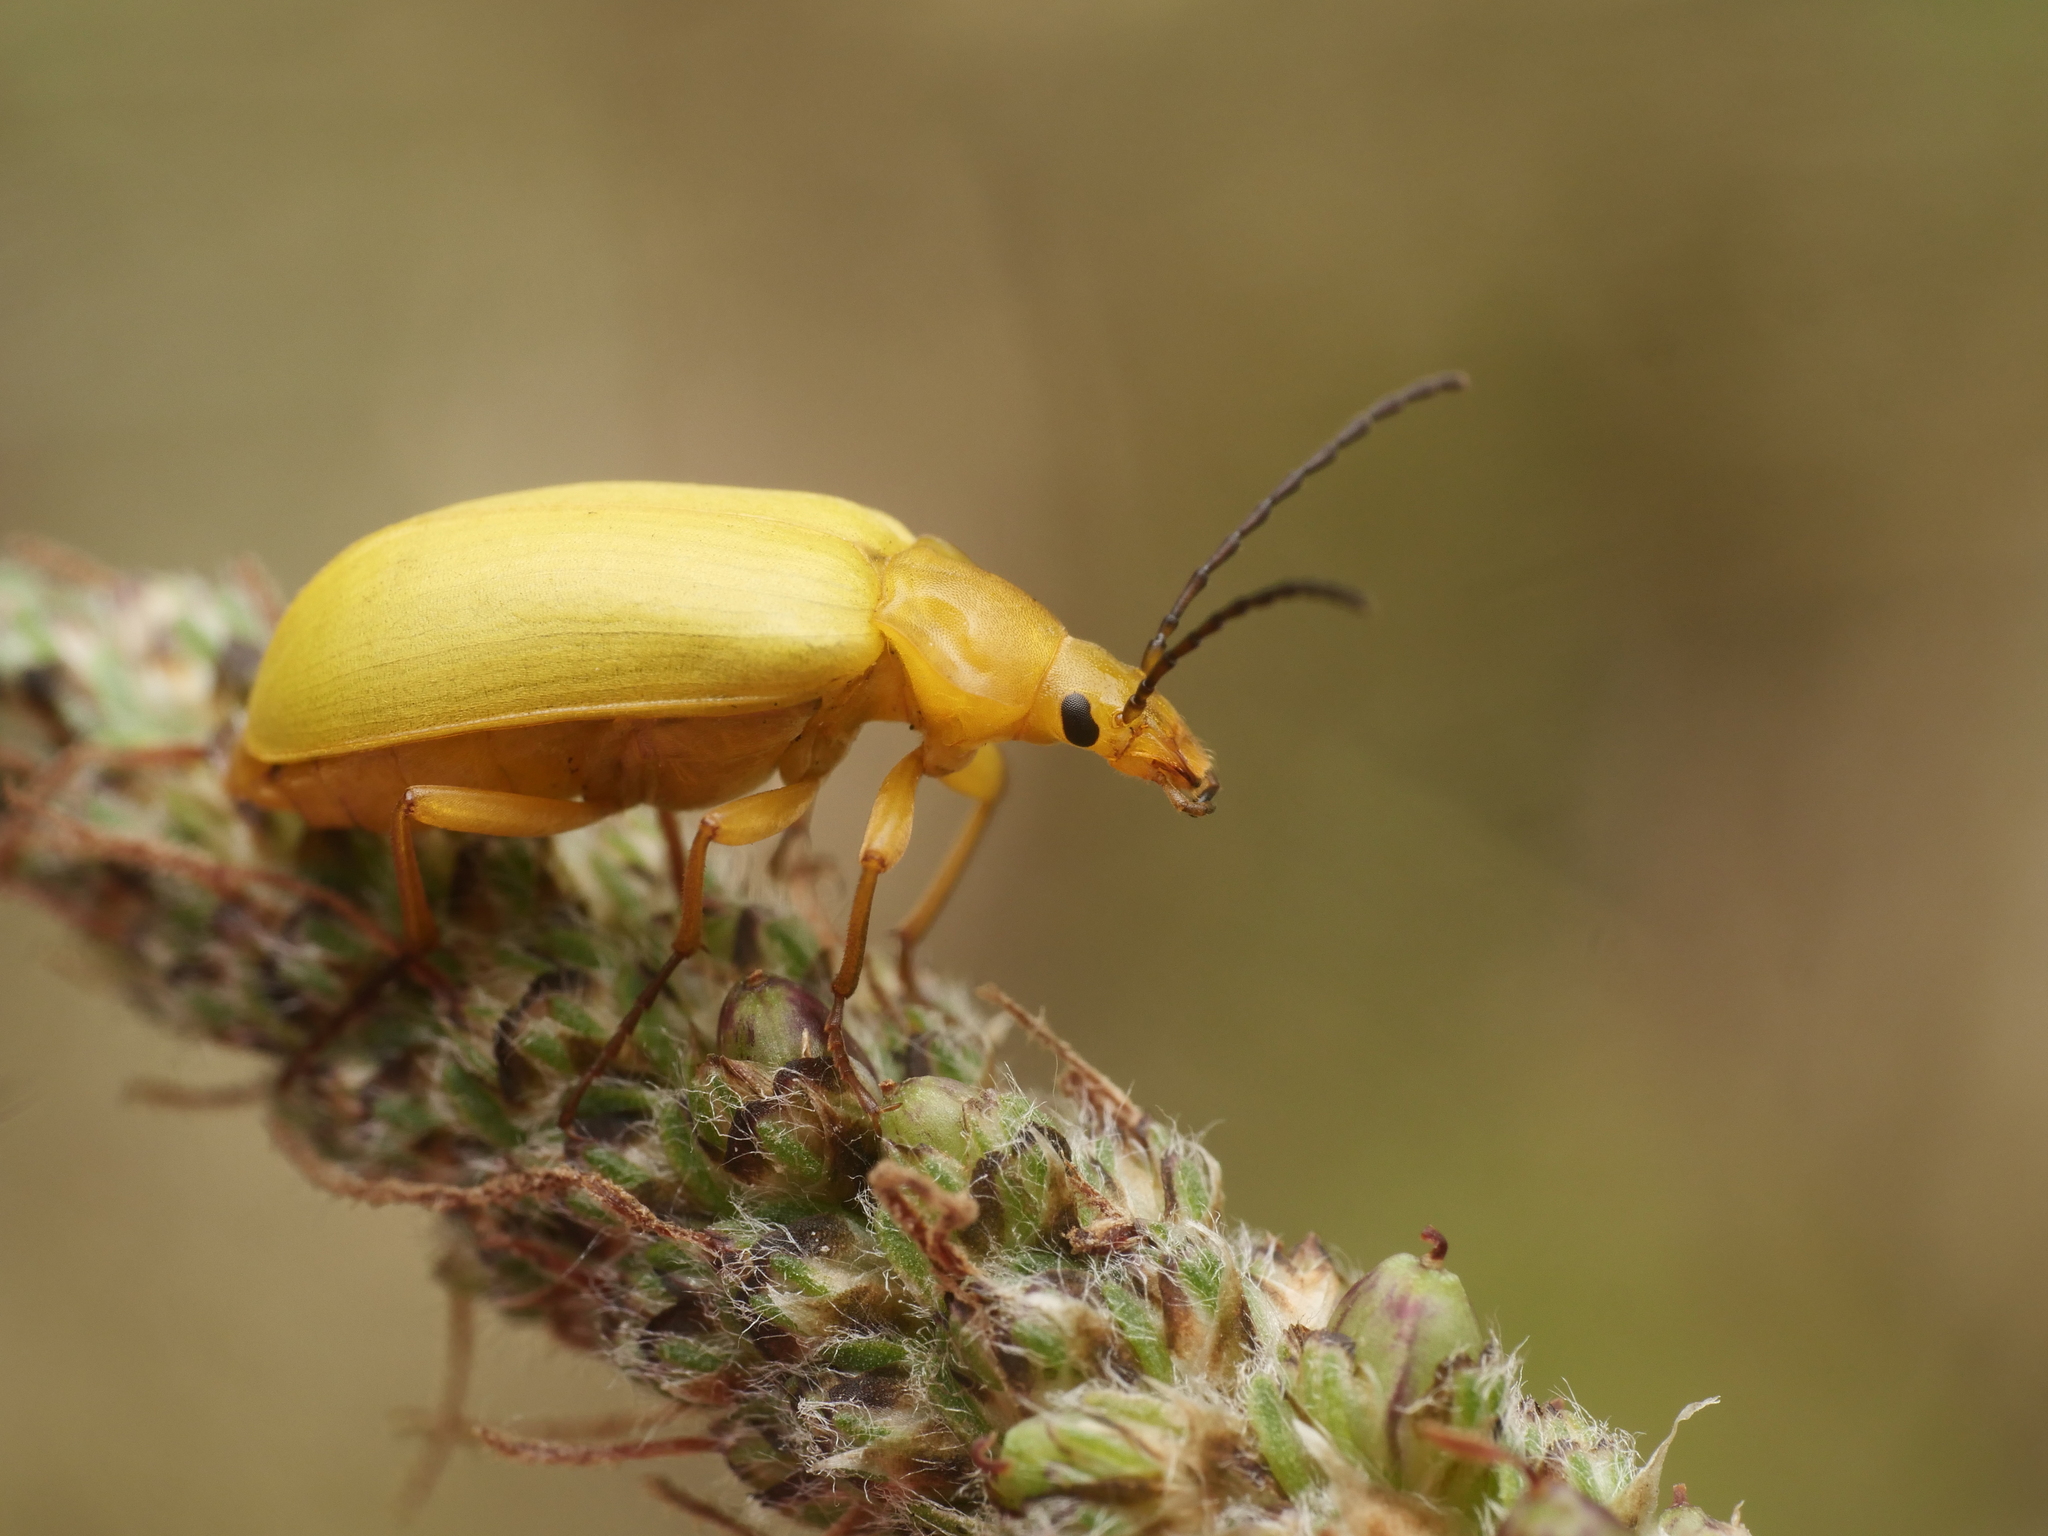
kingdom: Animalia
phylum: Arthropoda
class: Insecta
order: Coleoptera
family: Tenebrionidae
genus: Cteniopus
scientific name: Cteniopus sulphureus
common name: Sulphur beetle
